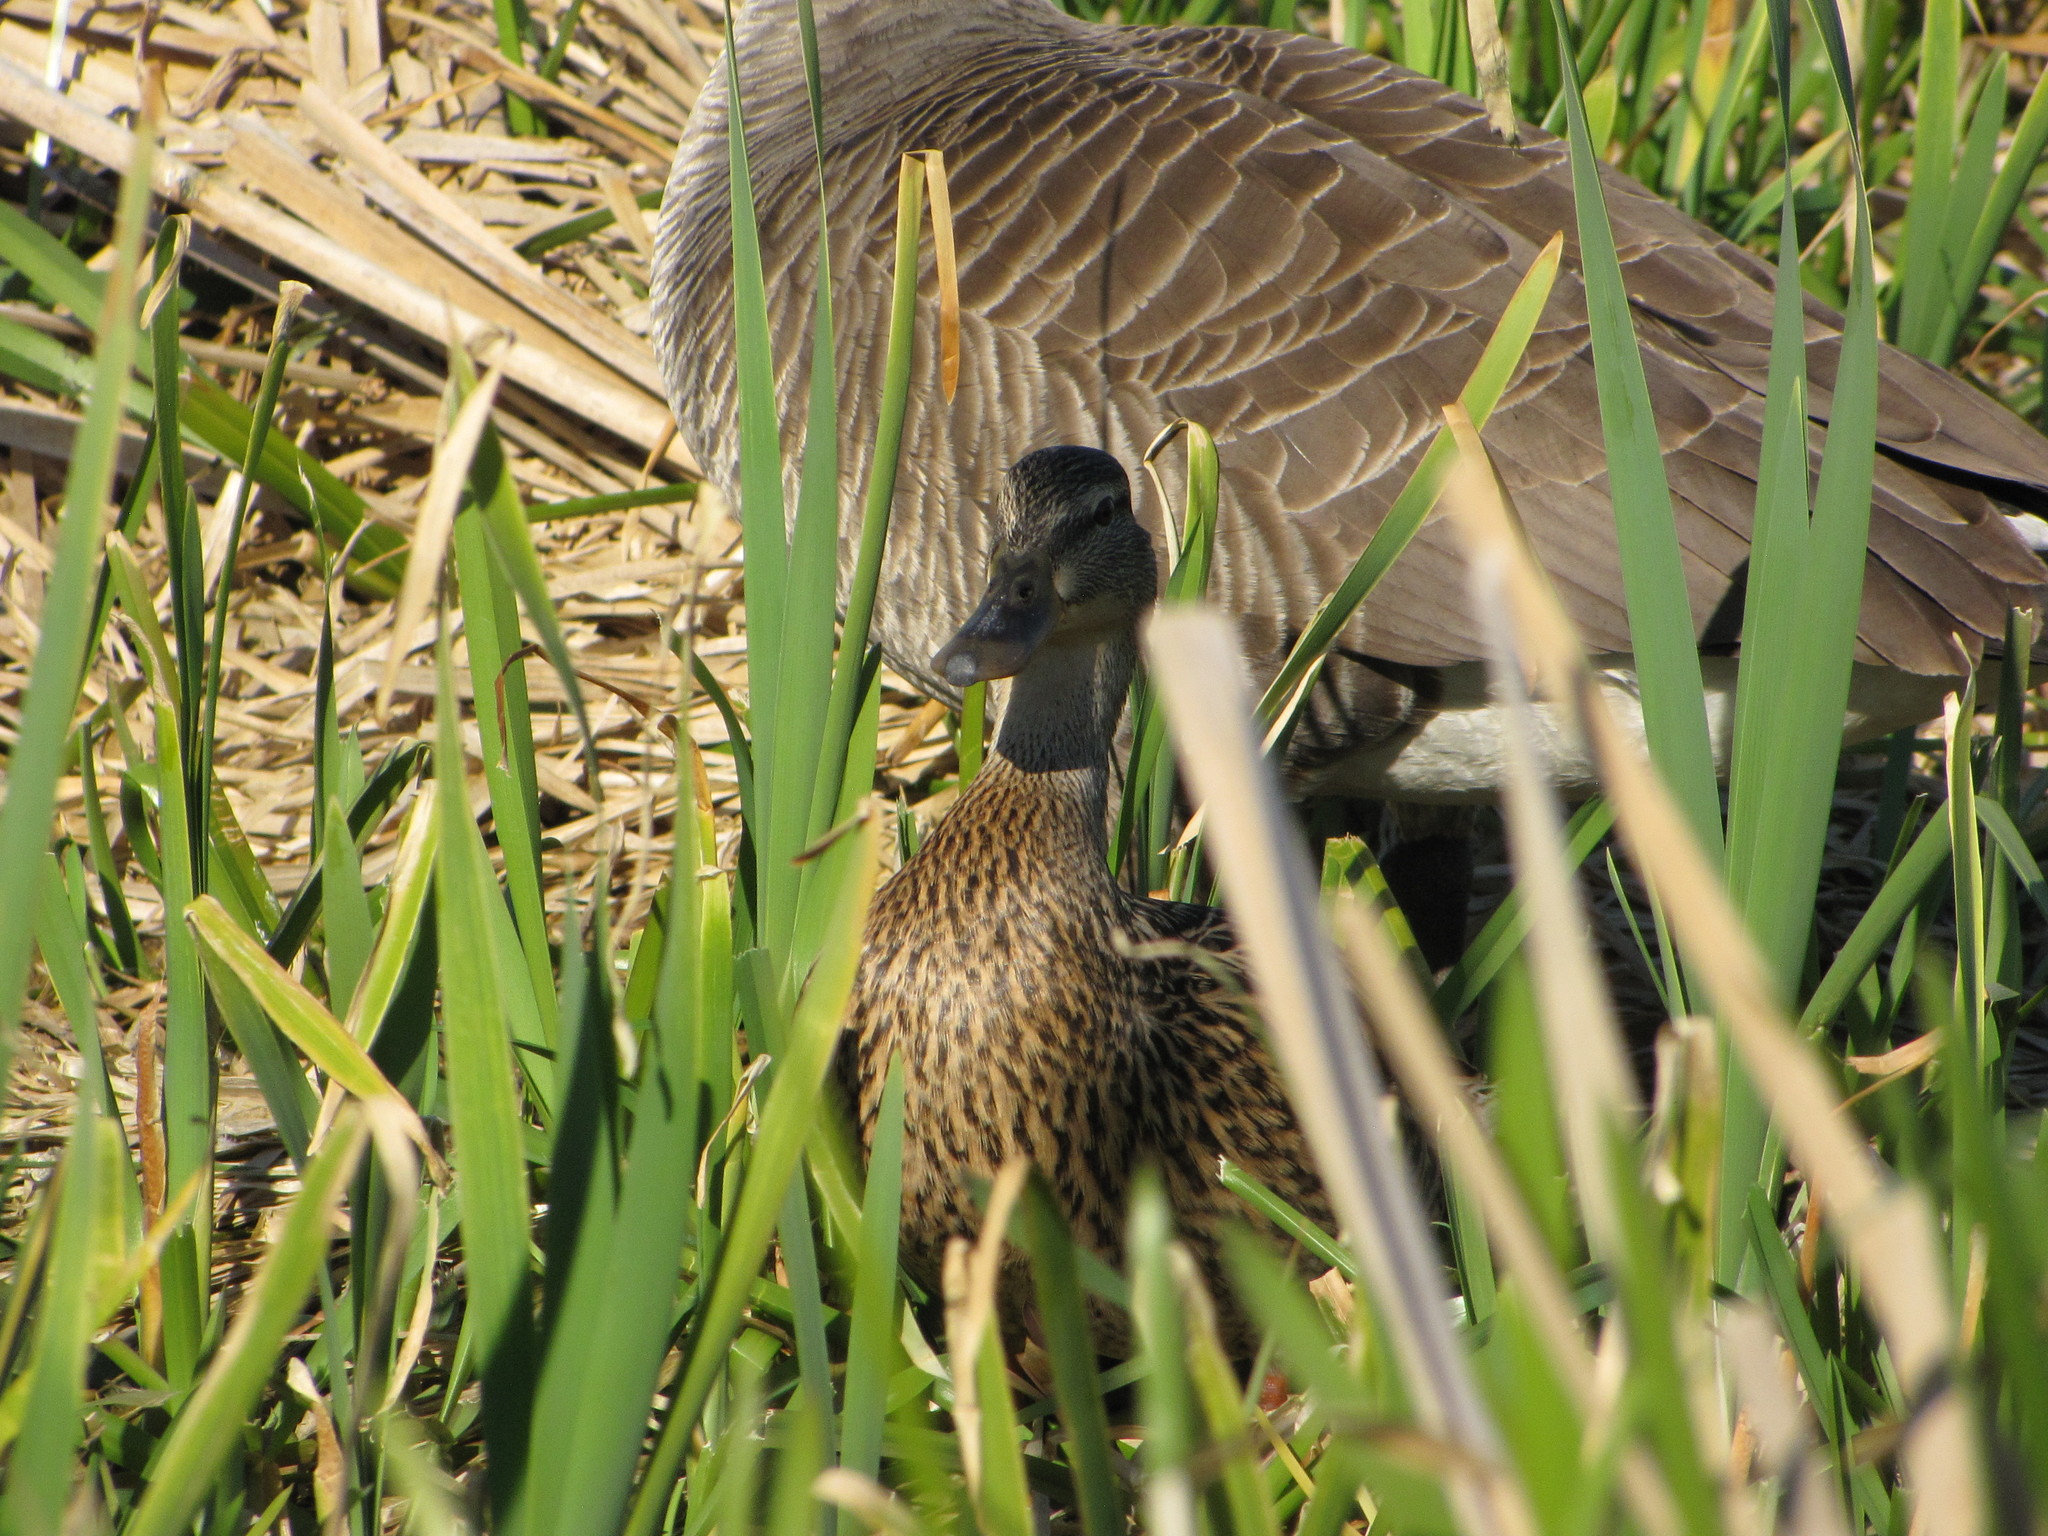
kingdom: Animalia
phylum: Chordata
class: Aves
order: Anseriformes
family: Anatidae
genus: Anas
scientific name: Anas platyrhynchos
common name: Mallard
